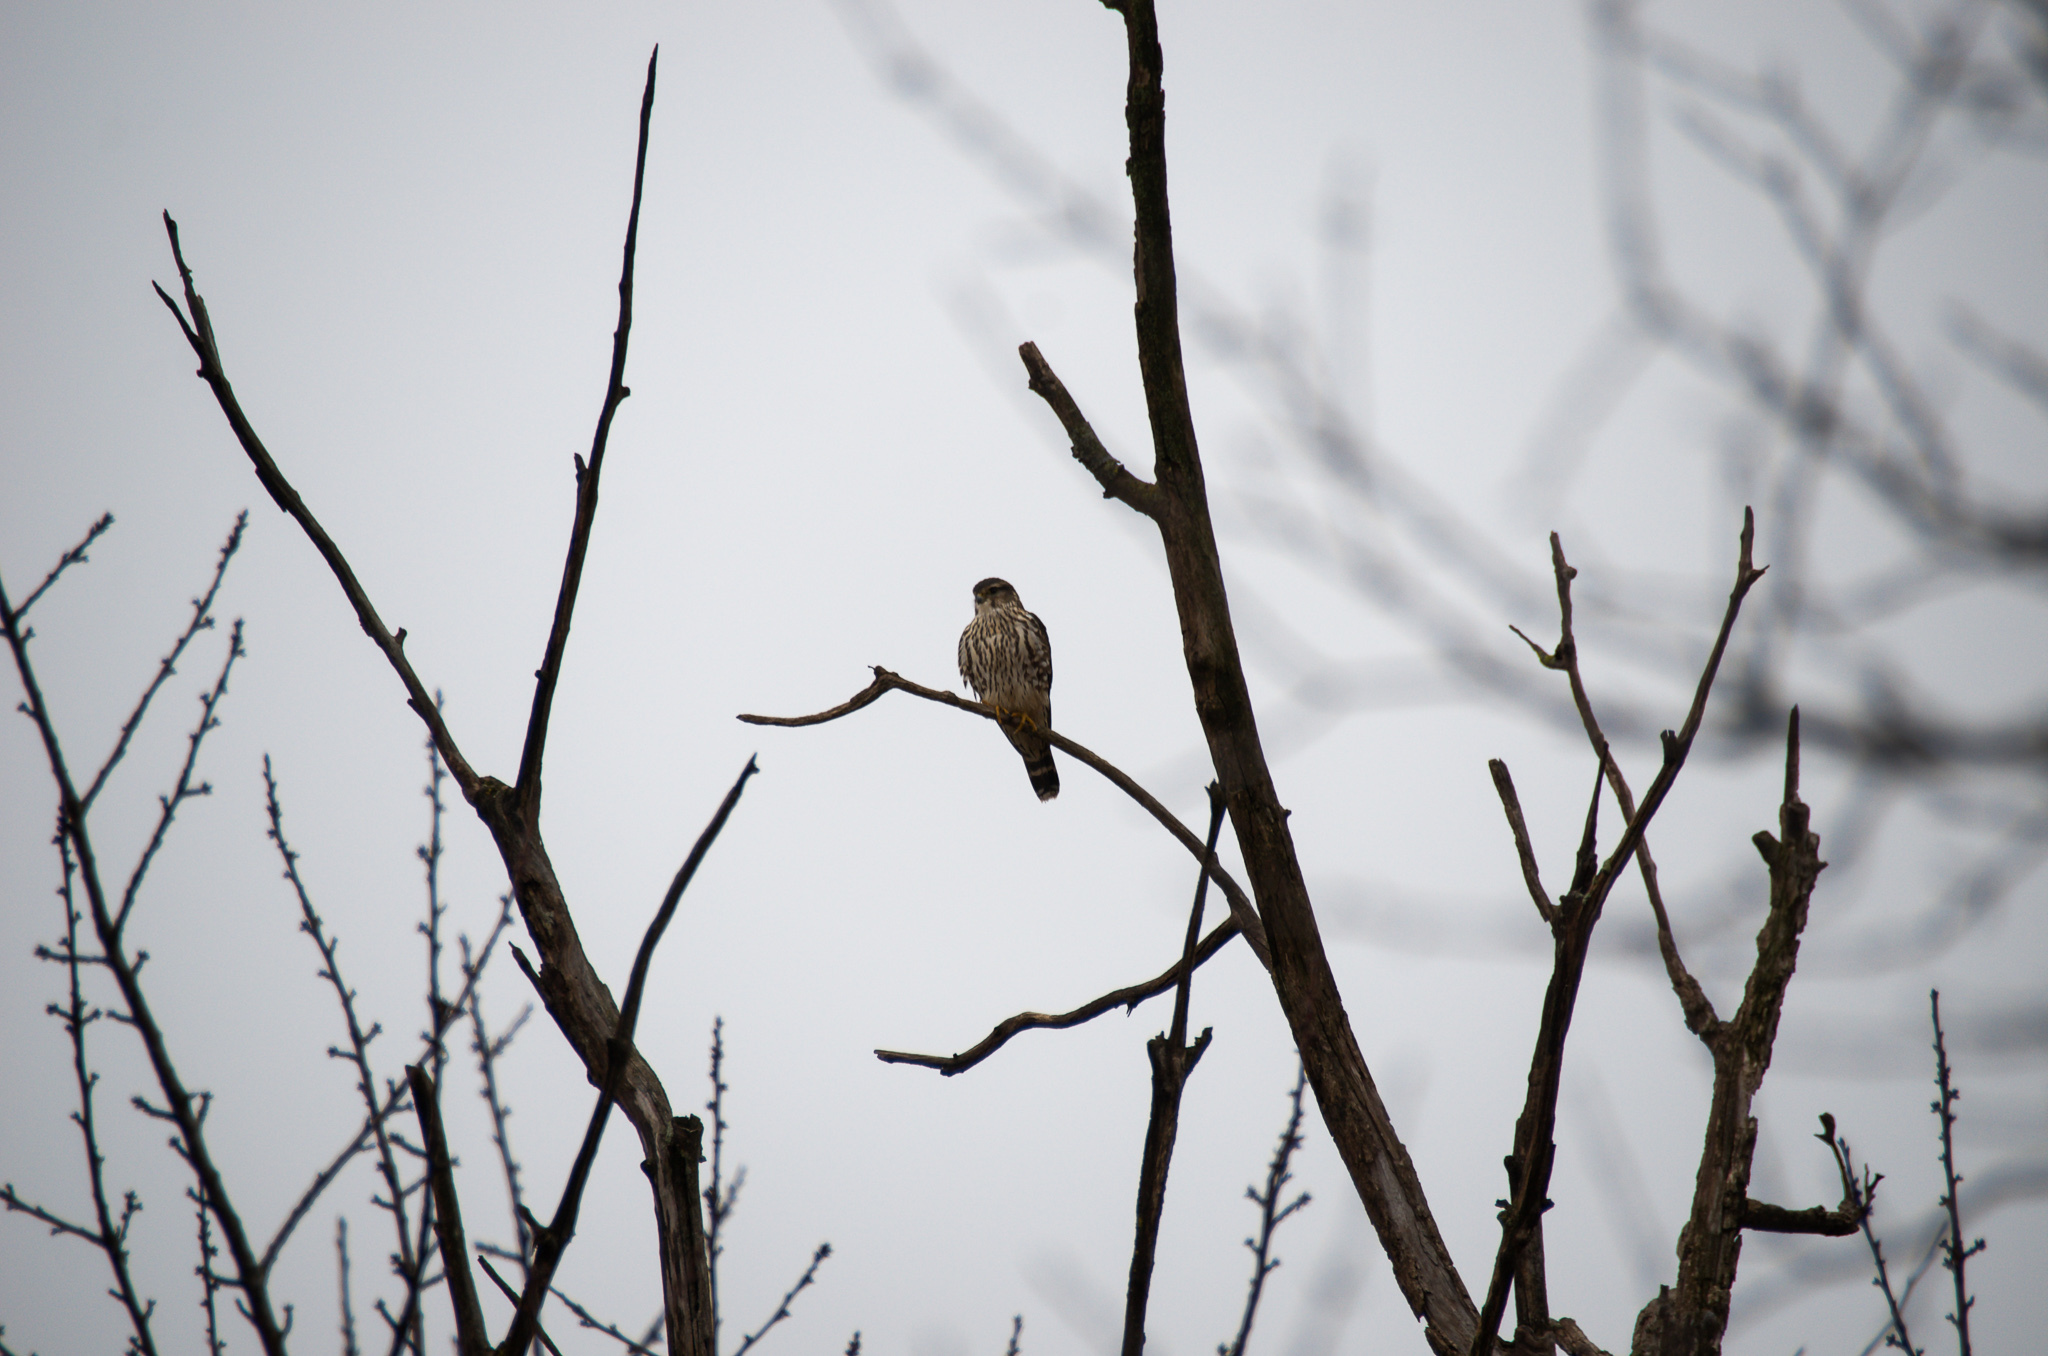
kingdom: Animalia
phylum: Chordata
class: Aves
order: Falconiformes
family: Falconidae
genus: Falco
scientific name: Falco columbarius
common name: Merlin
